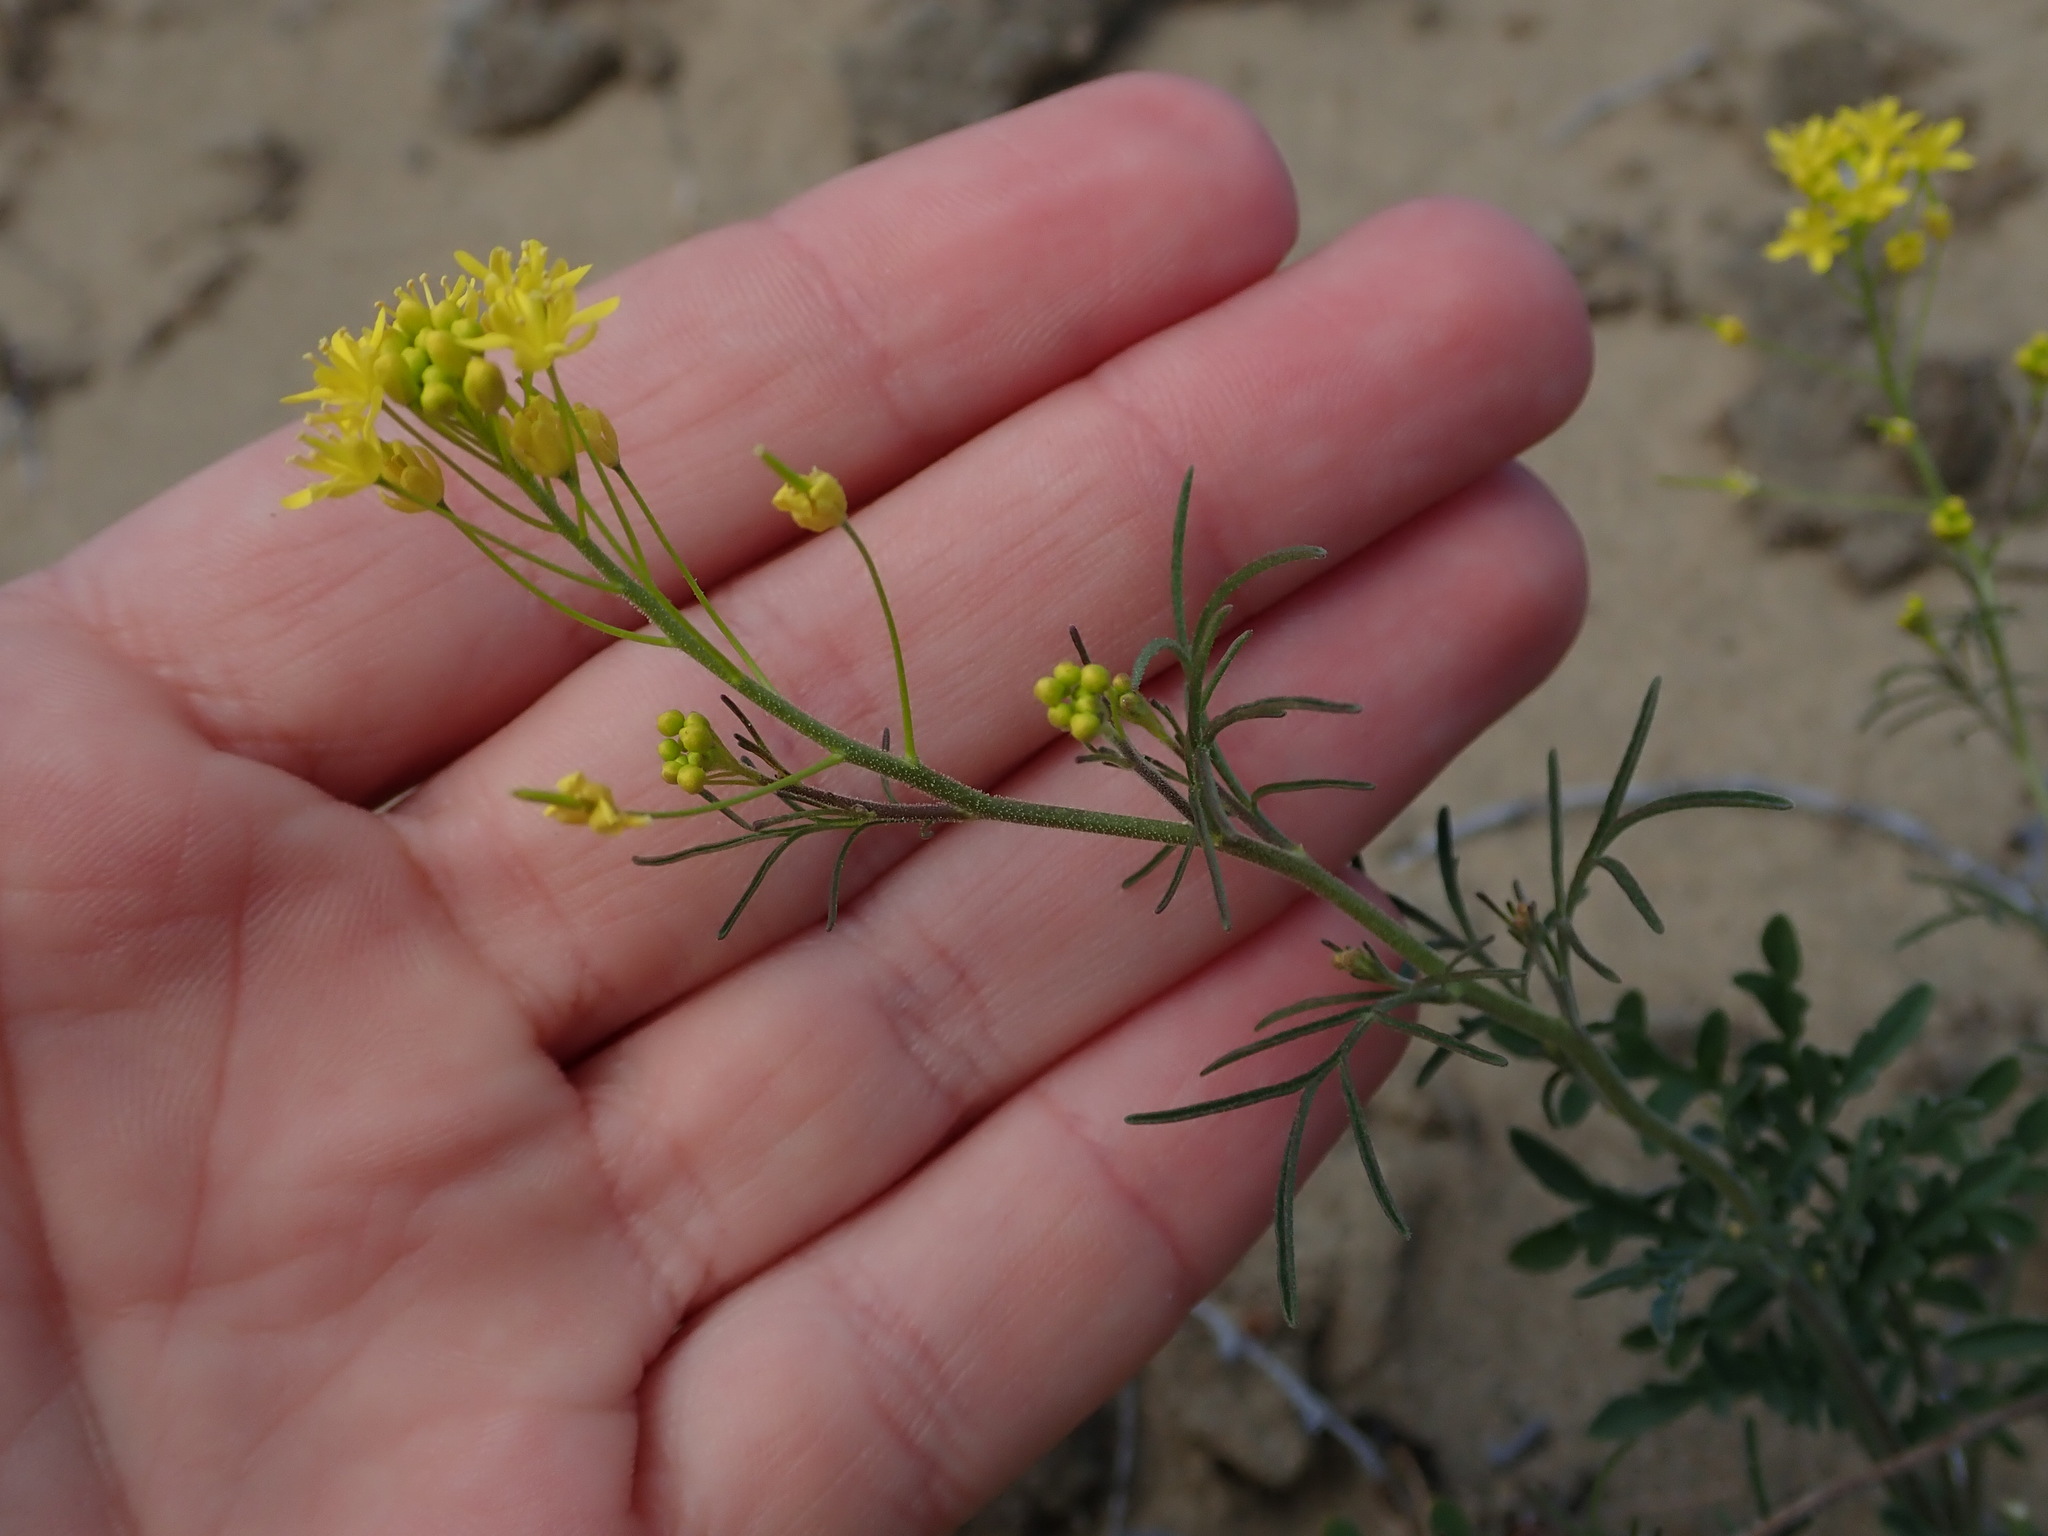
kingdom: Plantae
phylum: Tracheophyta
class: Magnoliopsida
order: Brassicales
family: Brassicaceae
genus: Descurainia
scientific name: Descurainia longepedicellata
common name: Erect-fruit mountain tansy mustard
